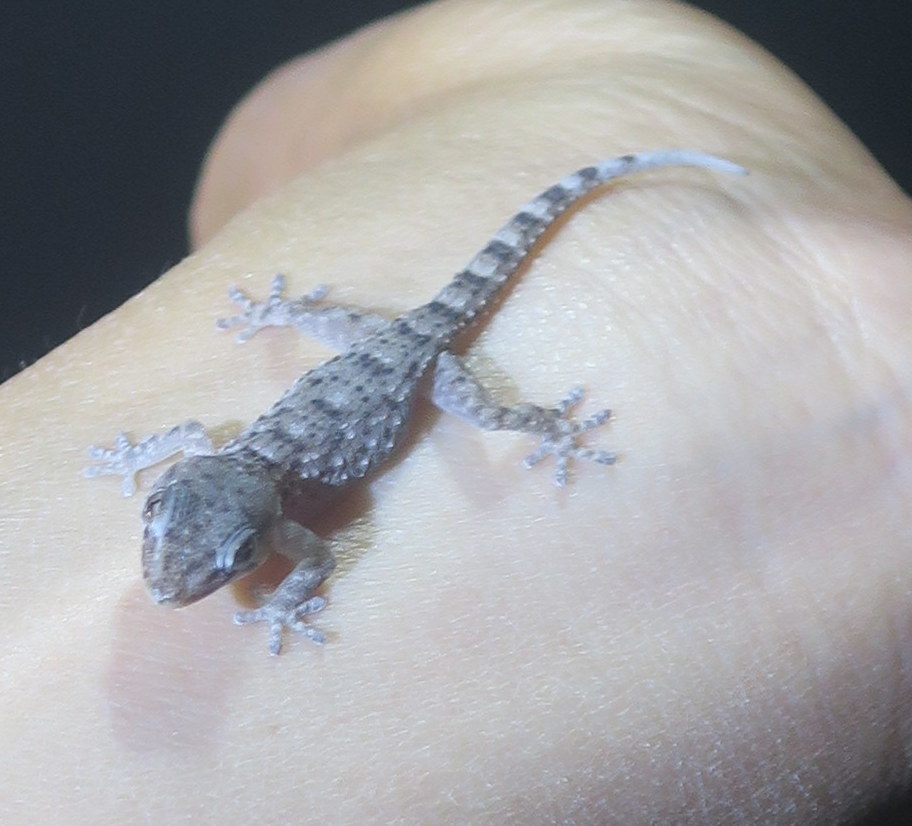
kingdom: Animalia
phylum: Chordata
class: Squamata
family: Phyllodactylidae
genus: Tarentola
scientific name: Tarentola delalandii
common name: Tenerife wall gecko
